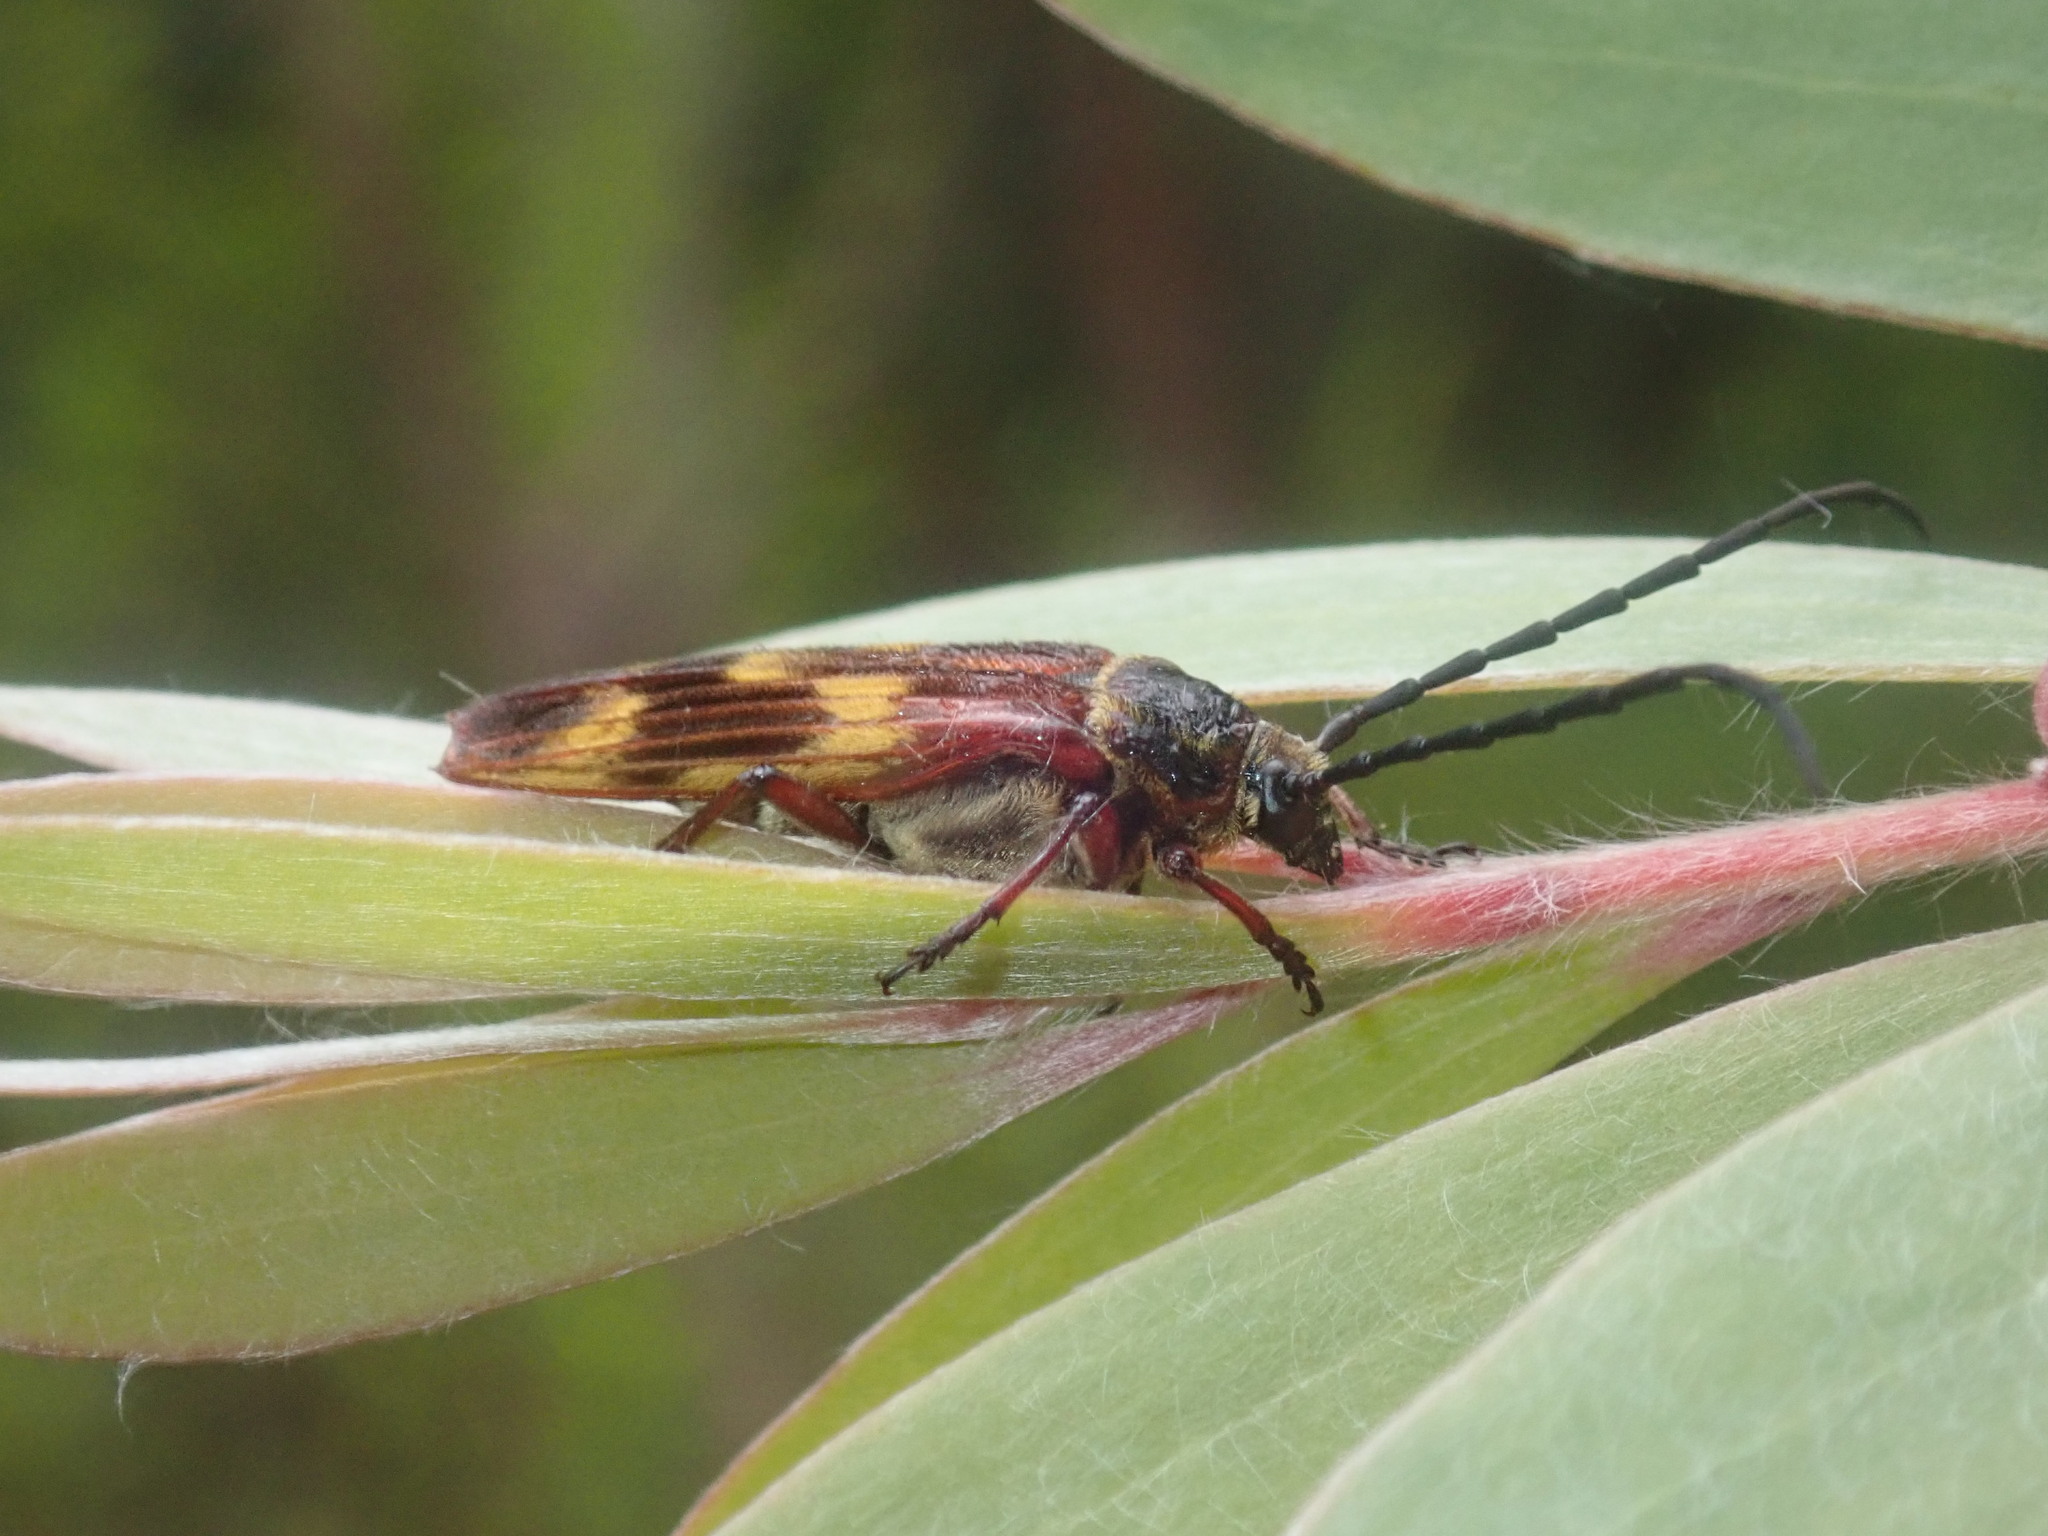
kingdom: Animalia
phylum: Arthropoda
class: Insecta
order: Coleoptera
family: Cerambycidae
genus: Tragocerus
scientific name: Tragocerus fasciatus
